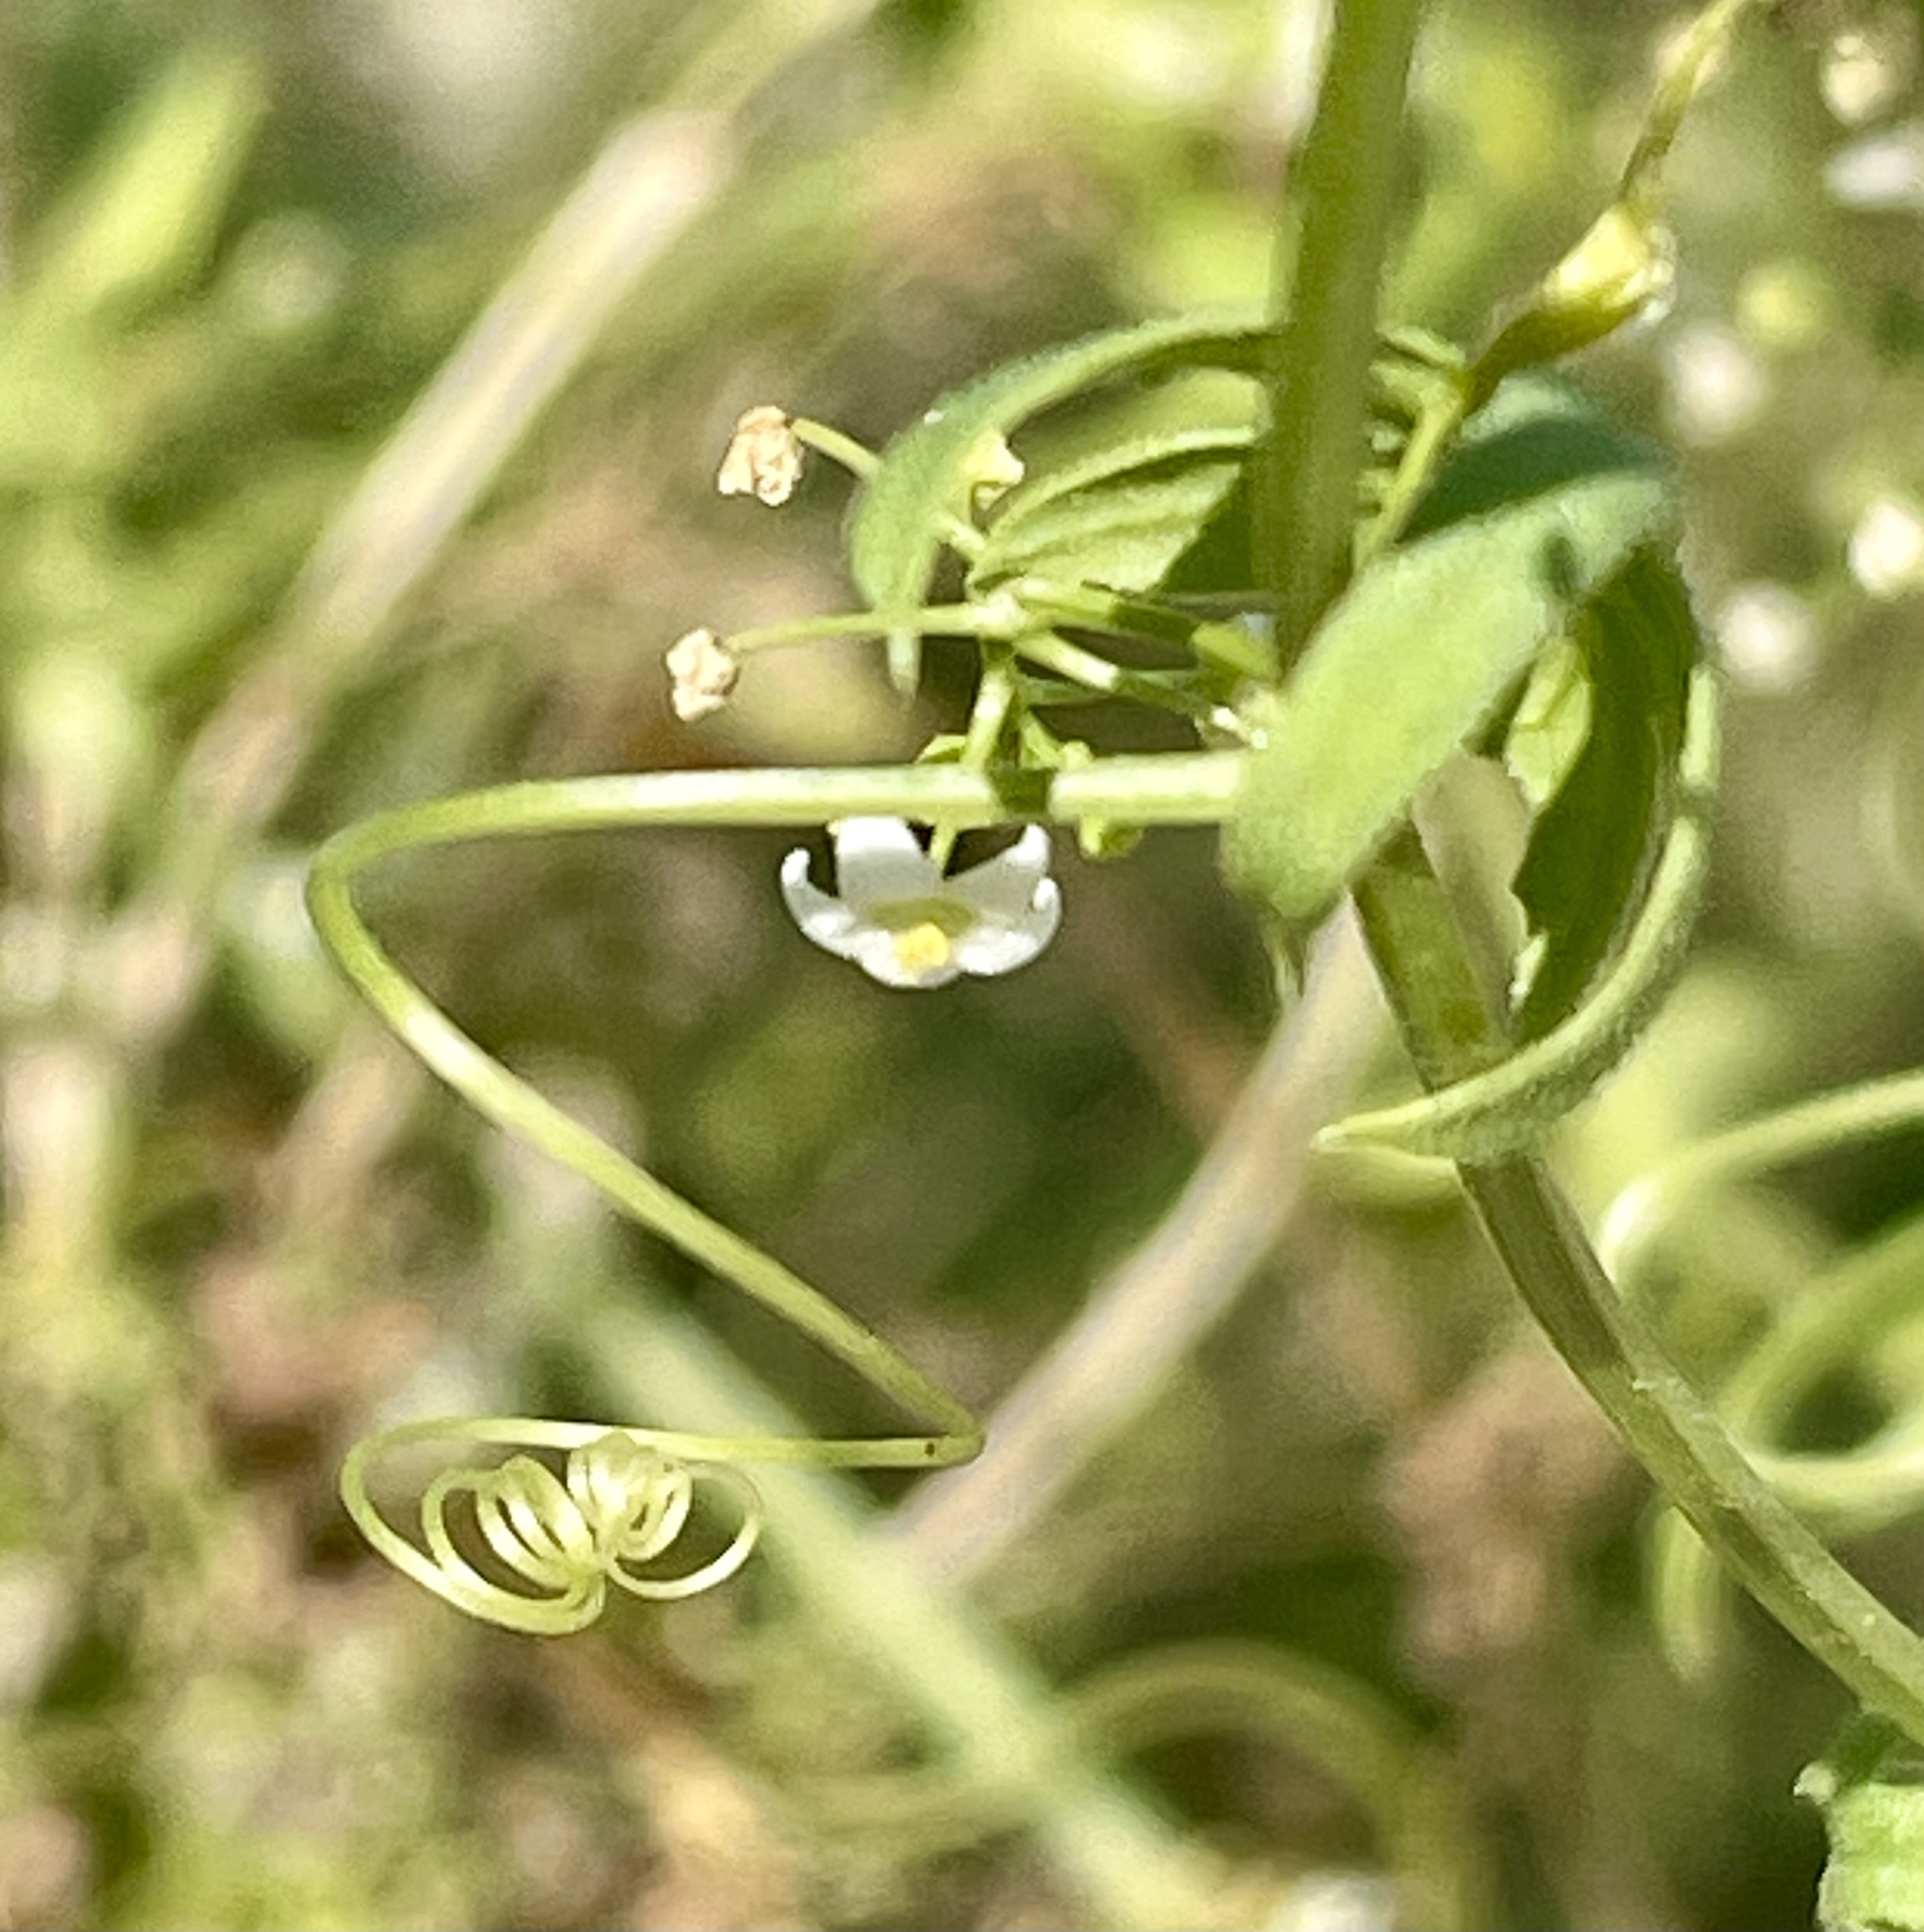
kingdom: Plantae
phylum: Tracheophyta
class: Magnoliopsida
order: Cucurbitales
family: Cucurbitaceae
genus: Echinopepon
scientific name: Echinopepon bigelovii
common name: Desert starvine
